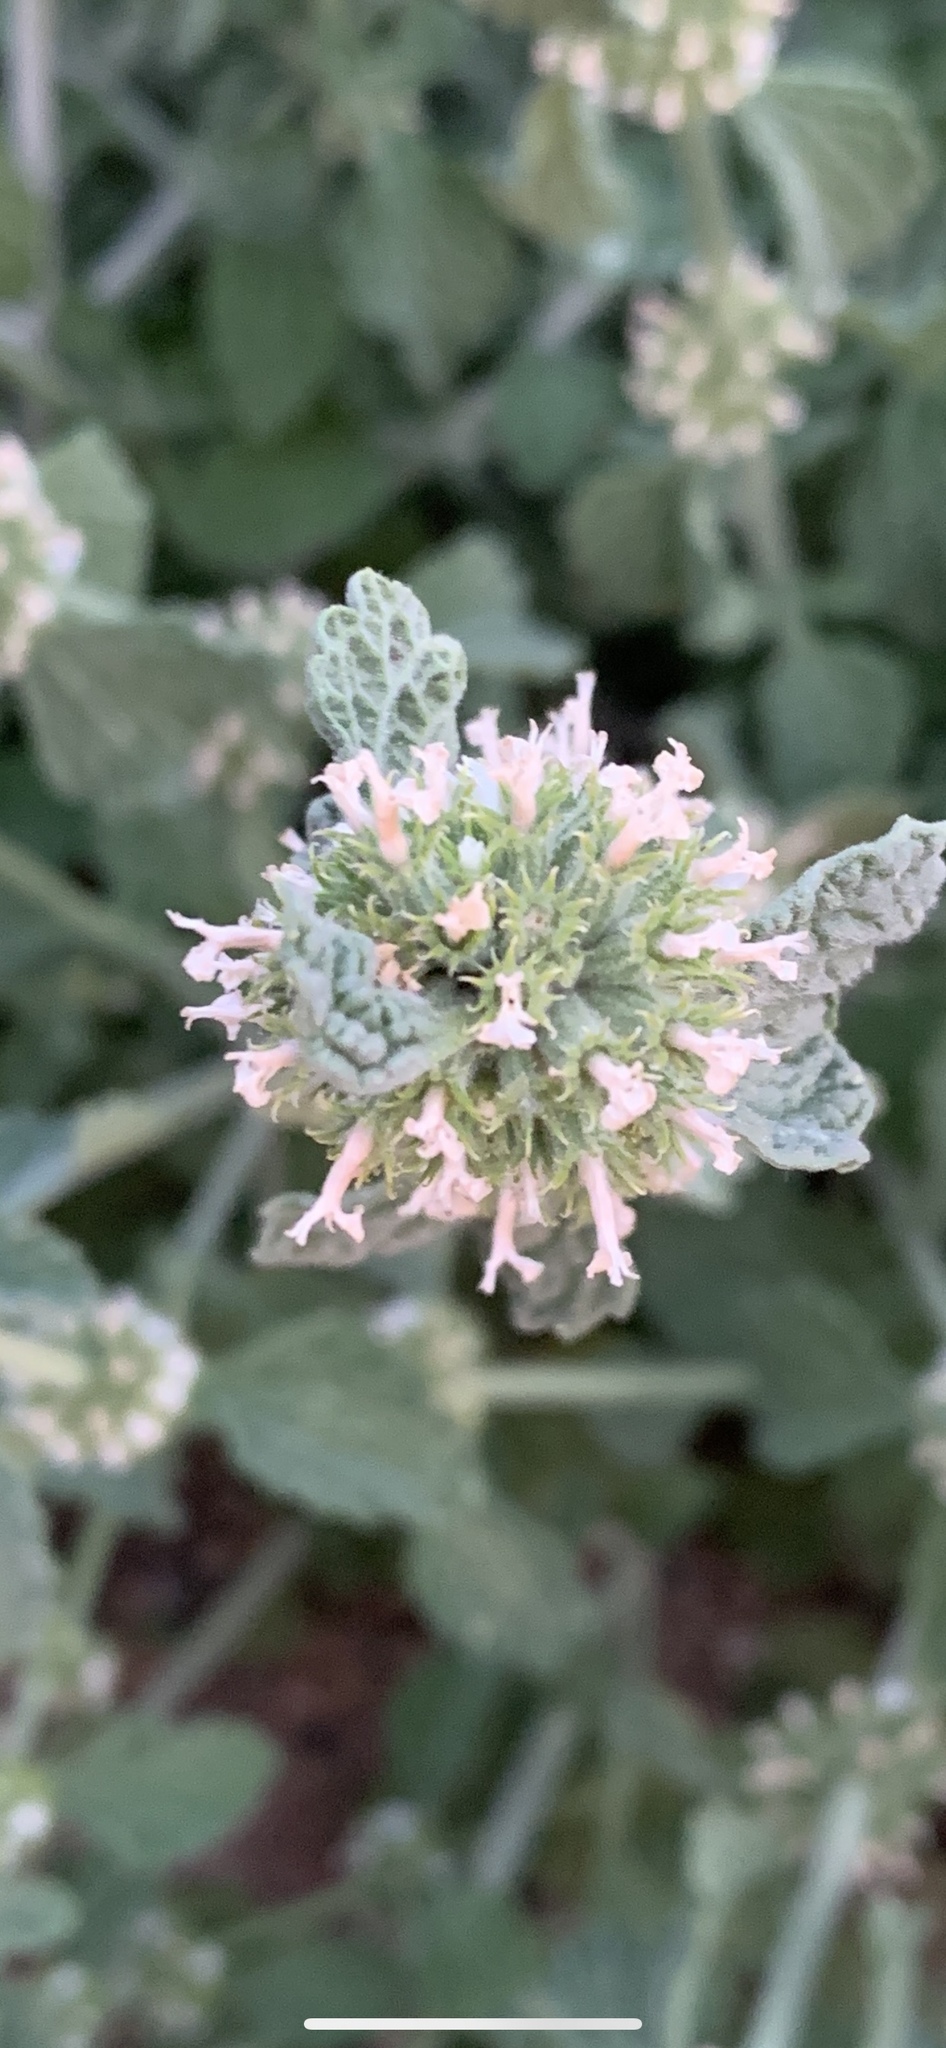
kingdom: Plantae
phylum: Tracheophyta
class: Magnoliopsida
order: Lamiales
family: Lamiaceae
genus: Marrubium
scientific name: Marrubium vulgare
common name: Horehound
